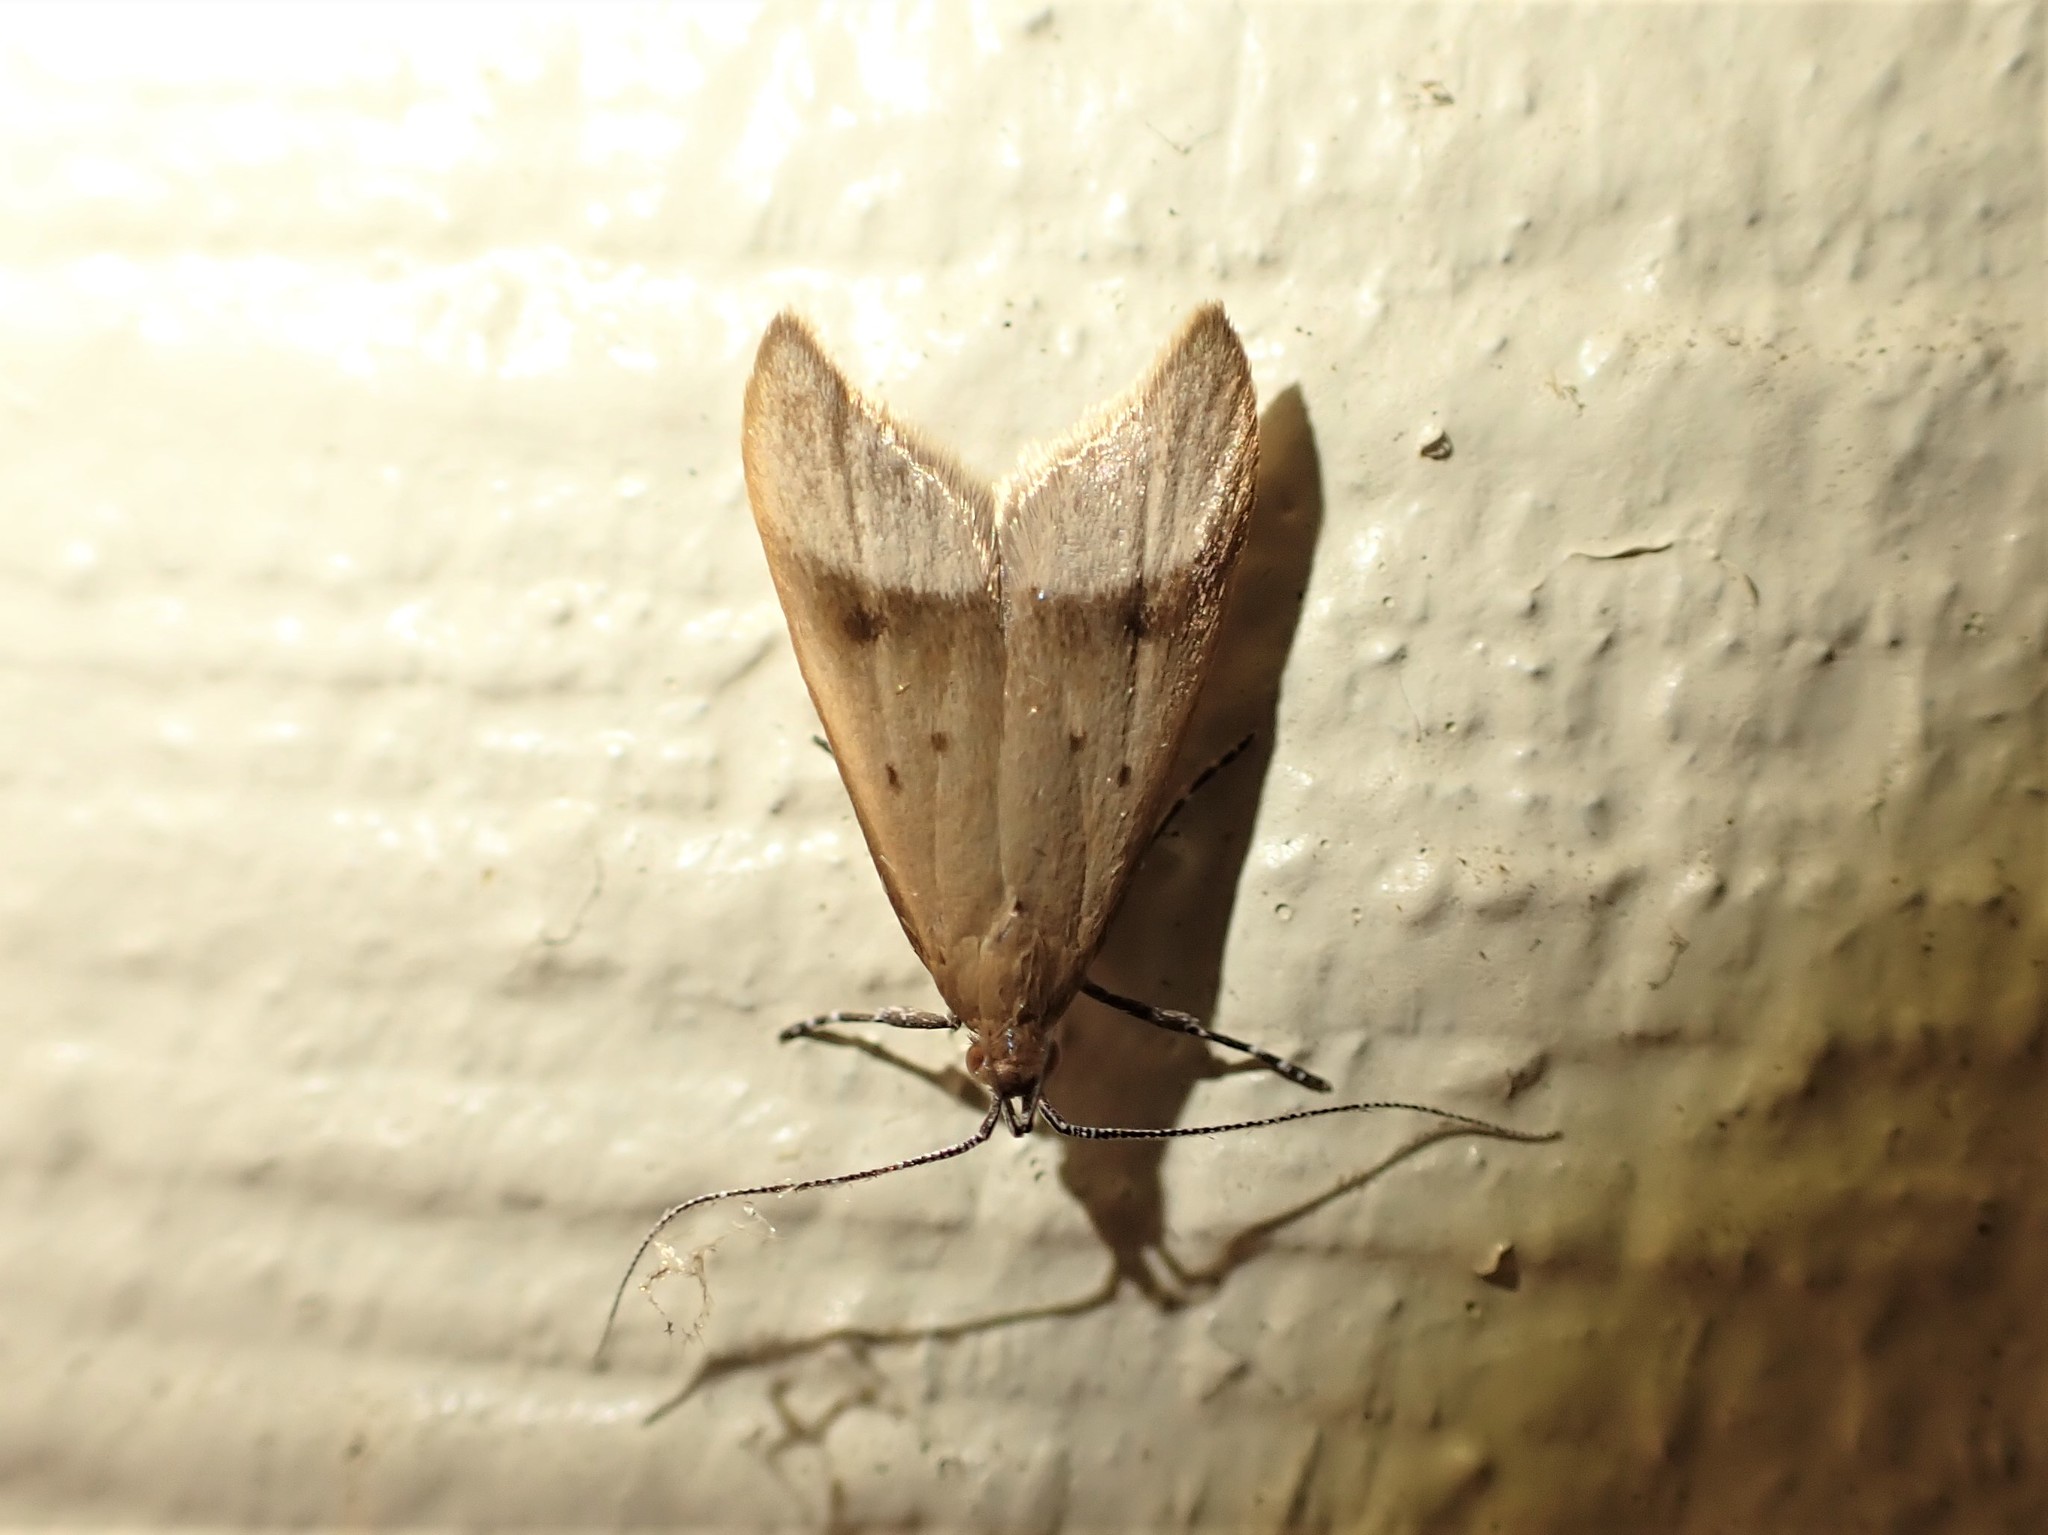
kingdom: Animalia
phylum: Arthropoda
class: Insecta
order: Lepidoptera
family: Oecophoridae
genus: Gymnobathra
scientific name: Gymnobathra hyetodes
